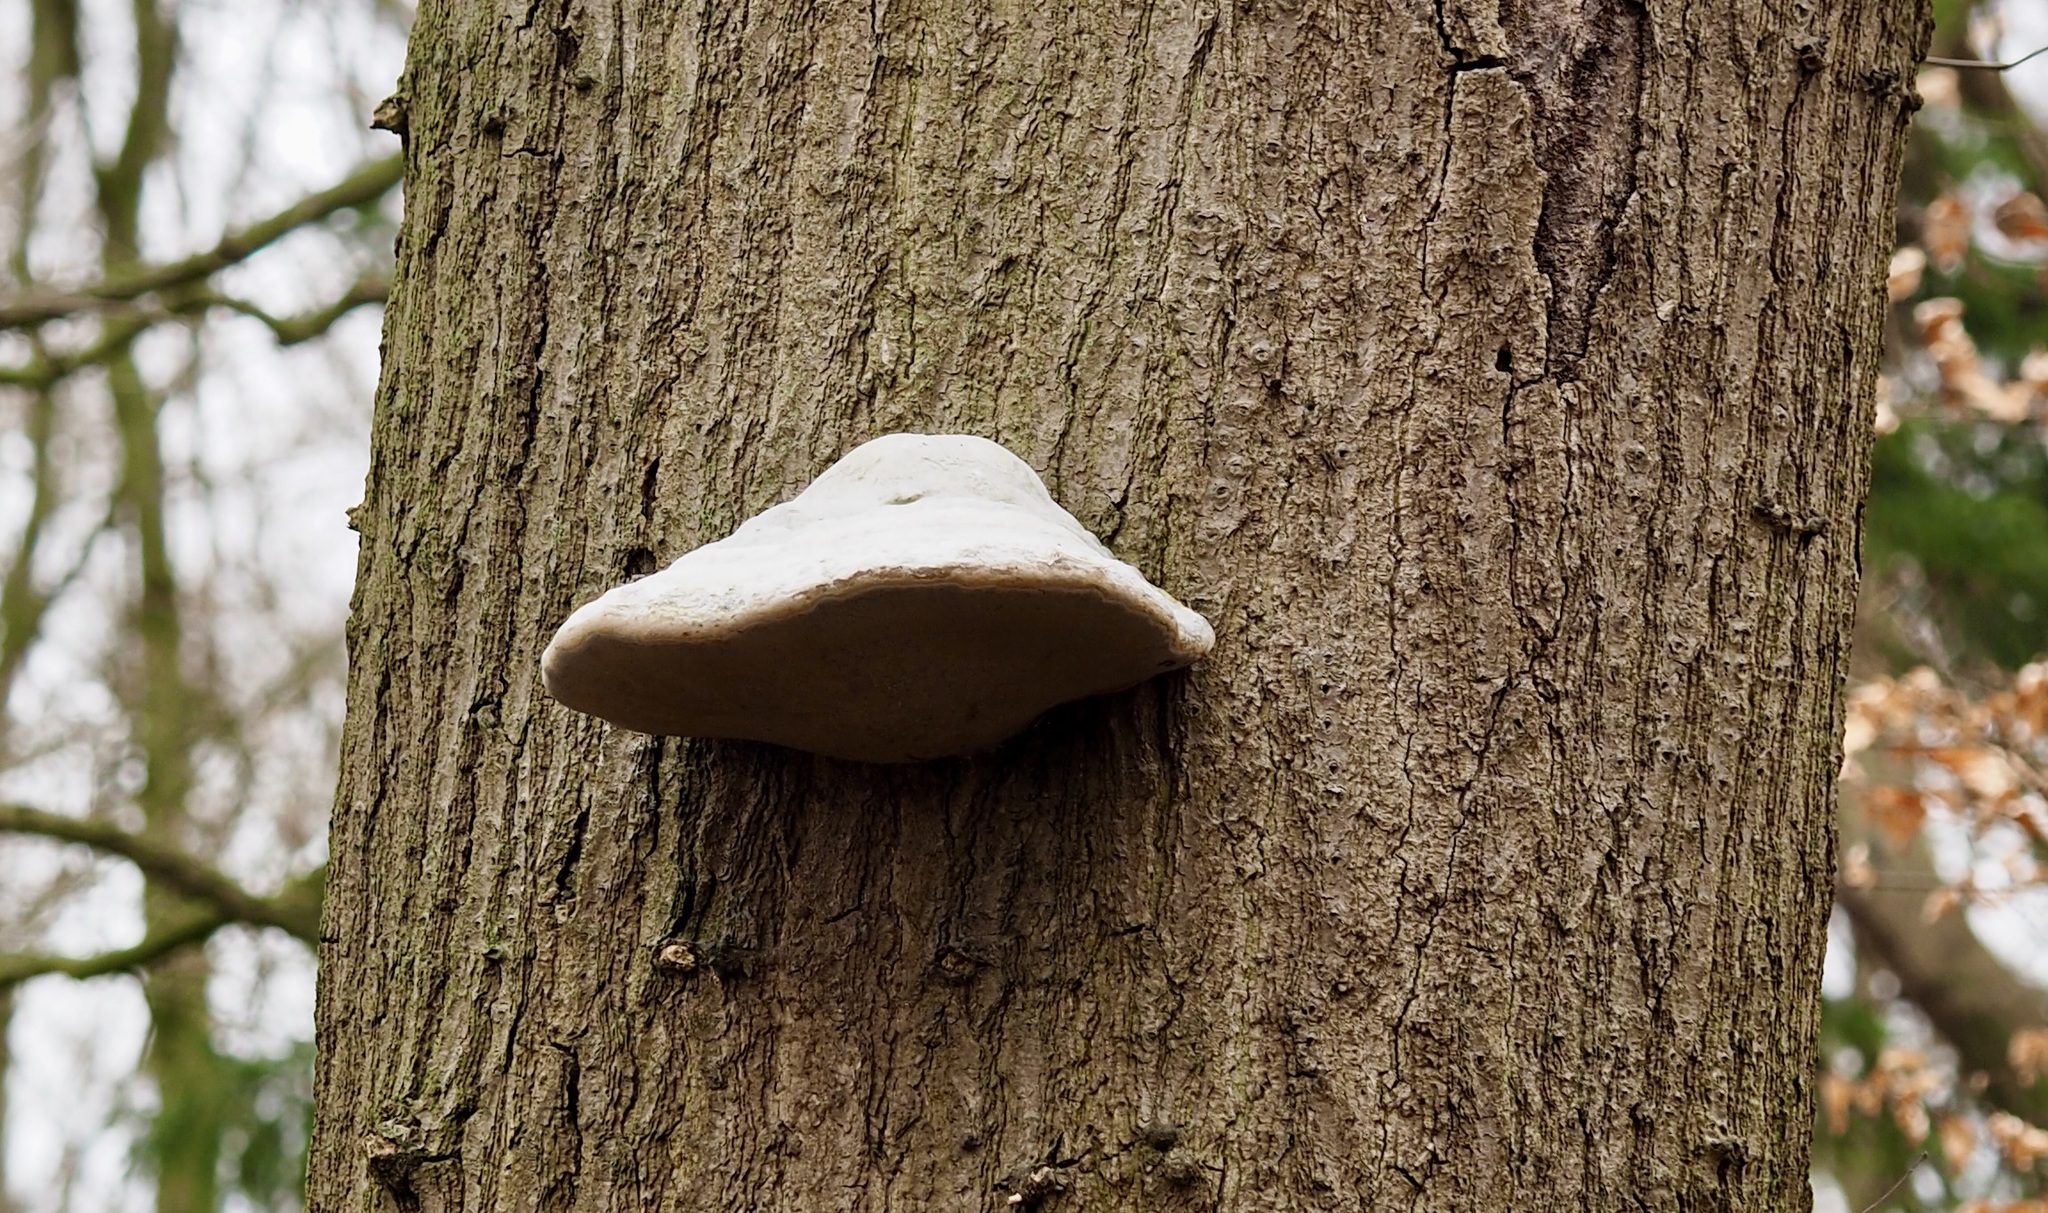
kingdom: Fungi
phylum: Basidiomycota
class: Agaricomycetes
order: Polyporales
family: Polyporaceae
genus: Fomes
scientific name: Fomes fomentarius
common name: Hoof fungus
